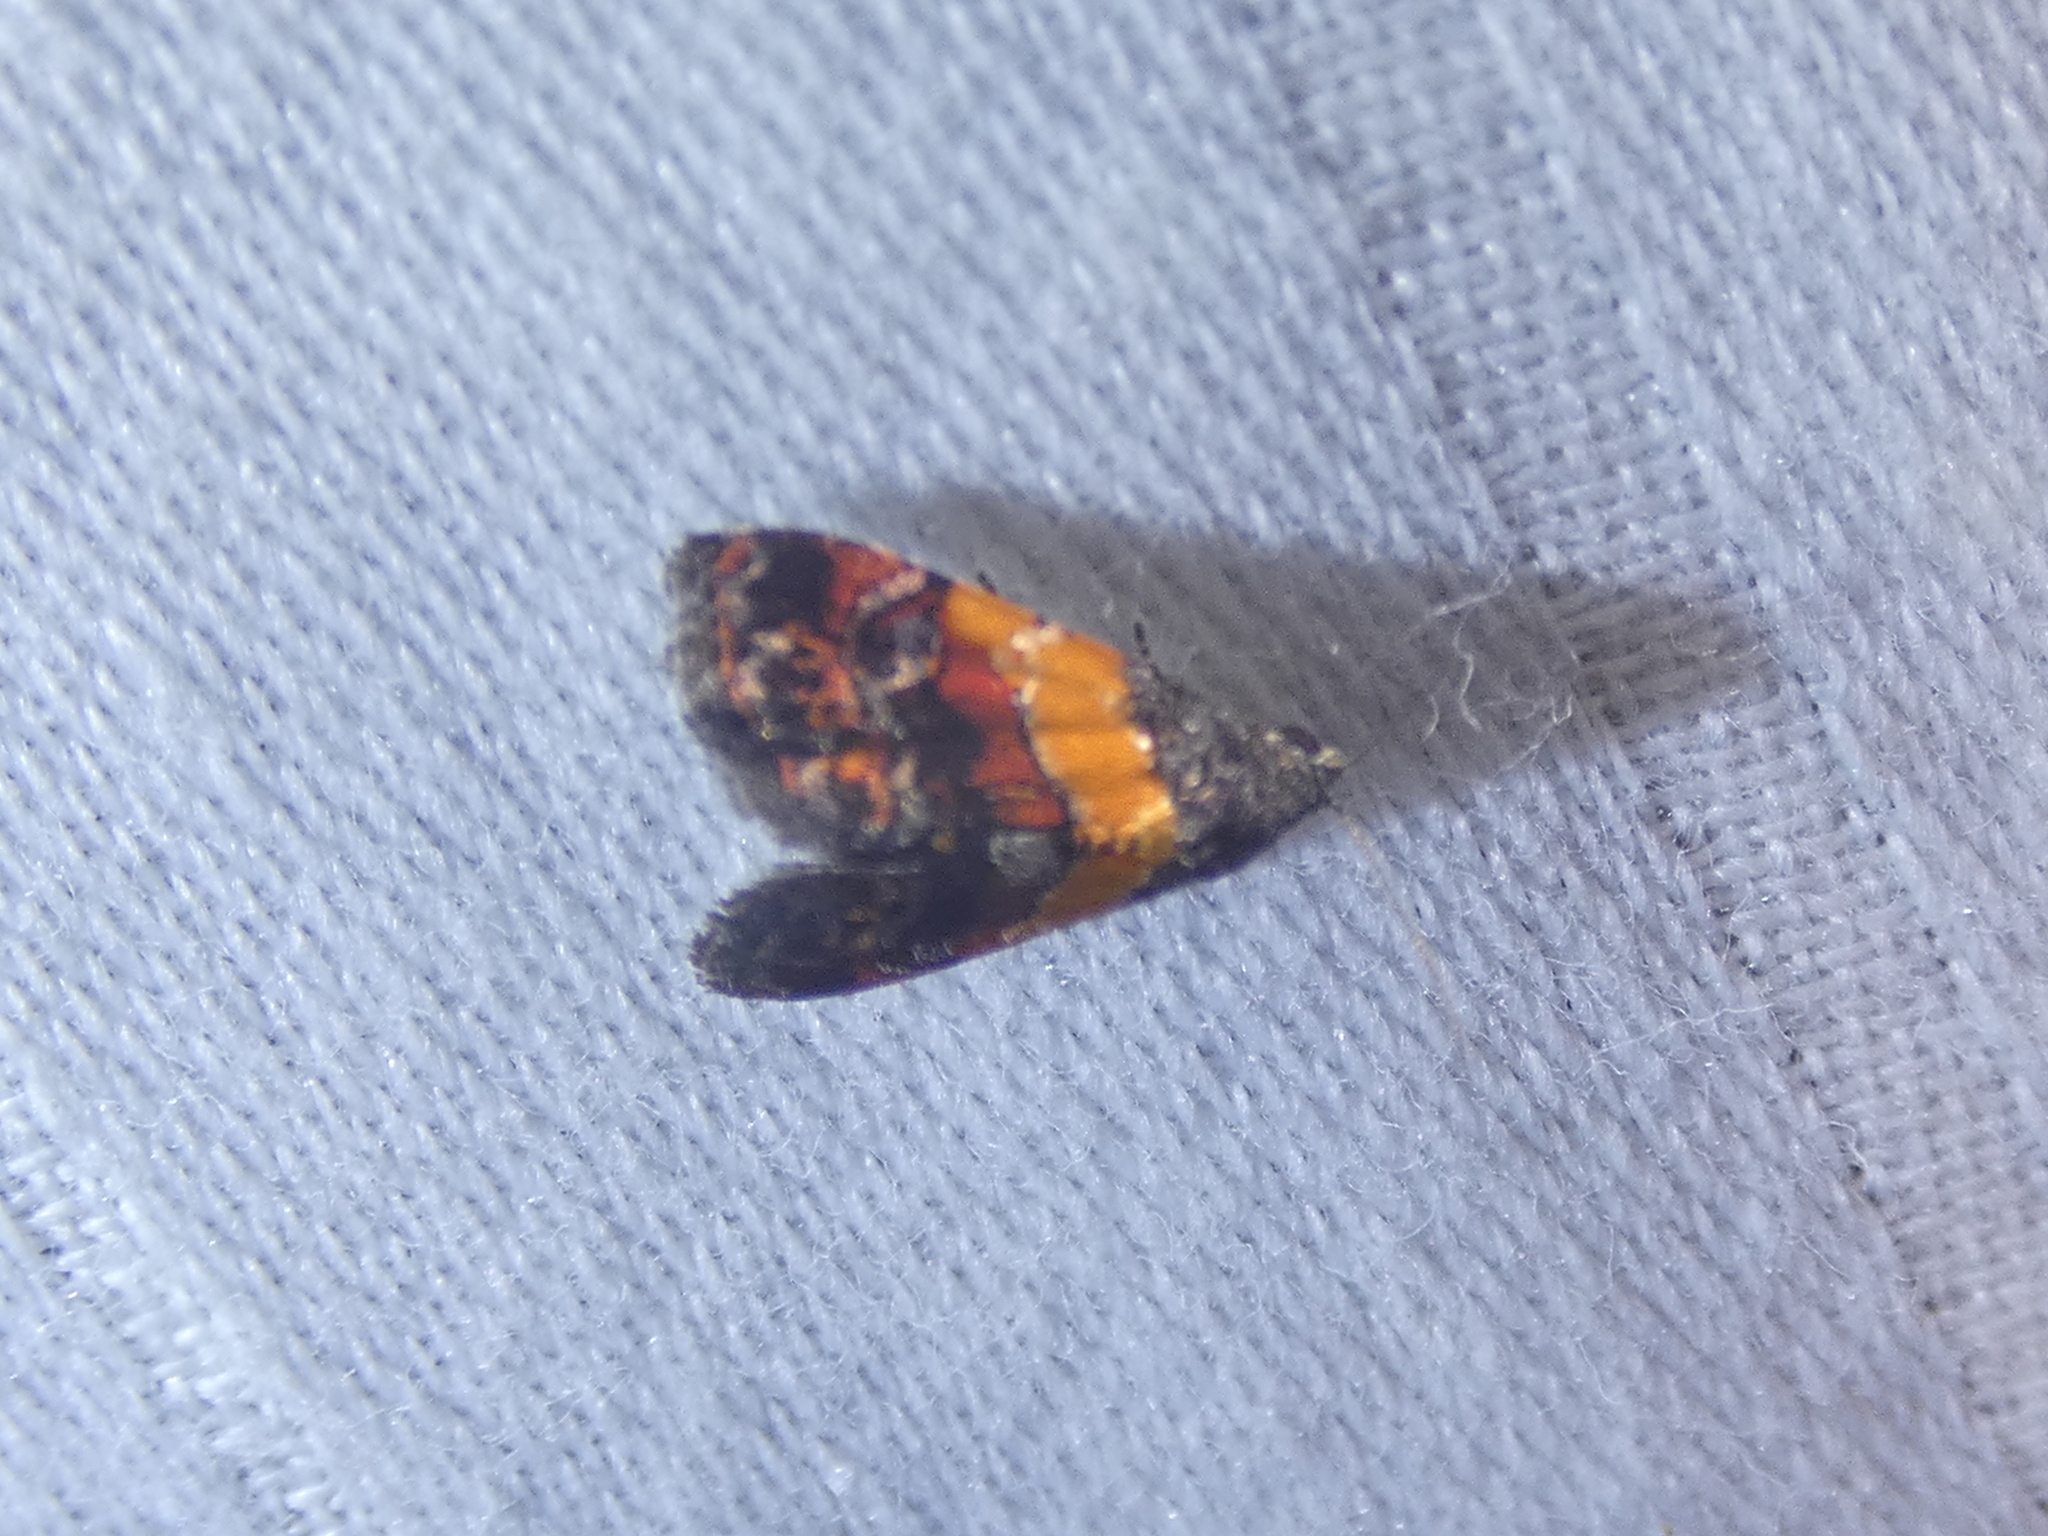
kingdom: Animalia
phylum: Arthropoda
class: Insecta
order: Lepidoptera
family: Noctuidae
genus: Tripudia
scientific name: Tripudia flavofasciata
